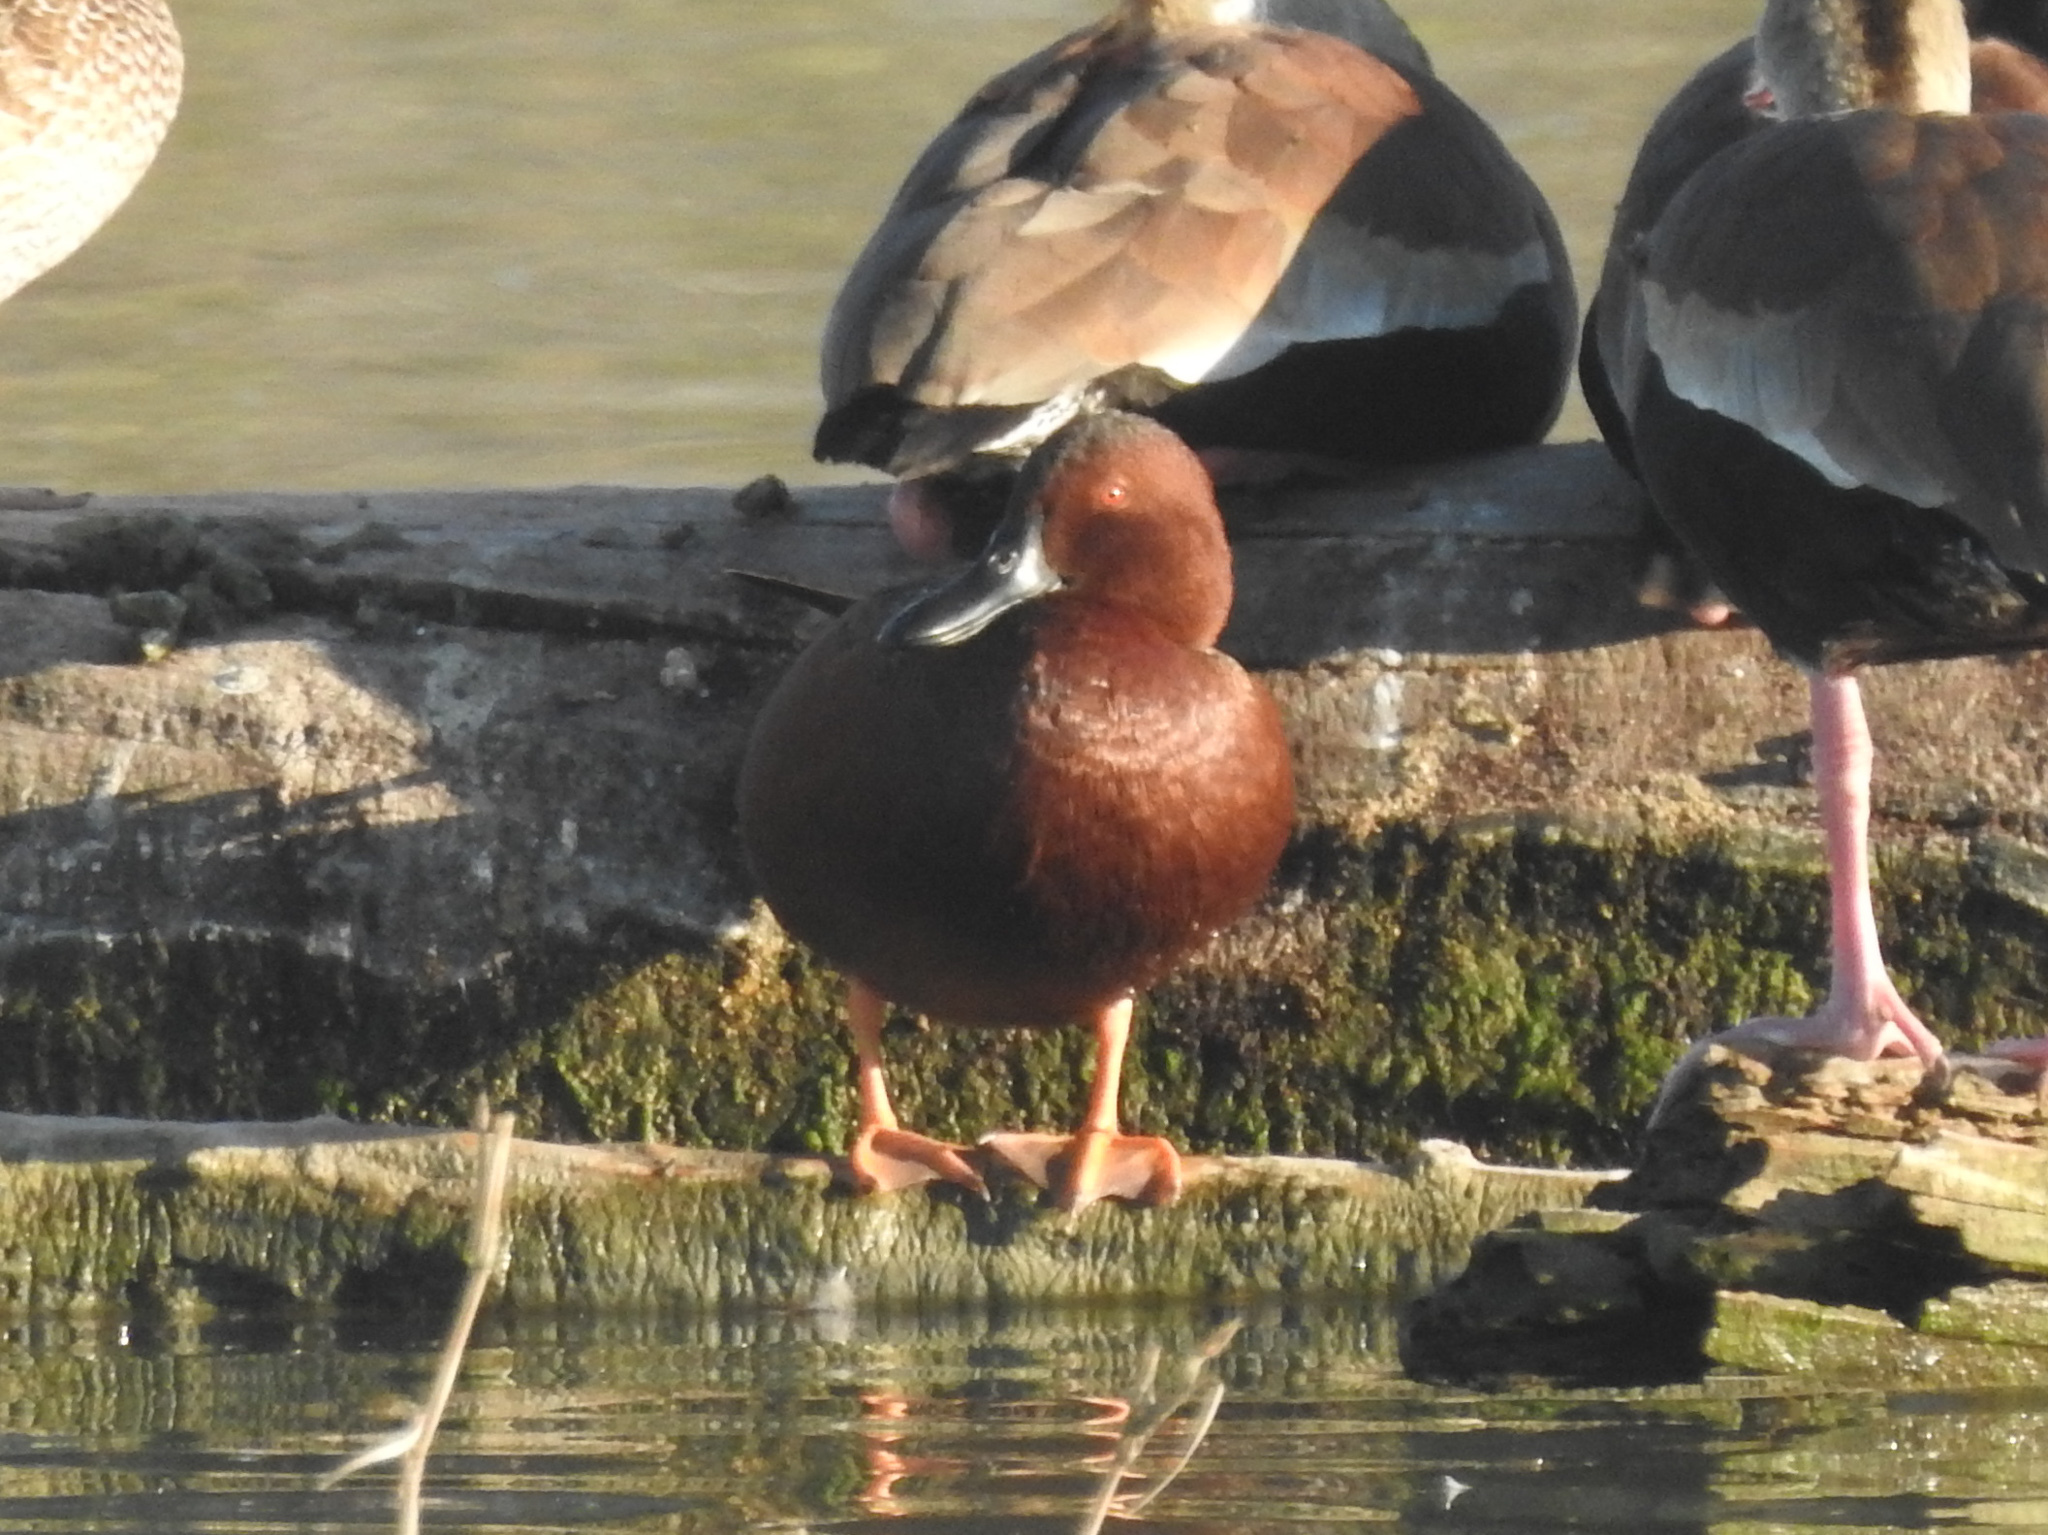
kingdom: Animalia
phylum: Chordata
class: Aves
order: Anseriformes
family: Anatidae
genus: Spatula
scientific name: Spatula cyanoptera
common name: Cinnamon teal
